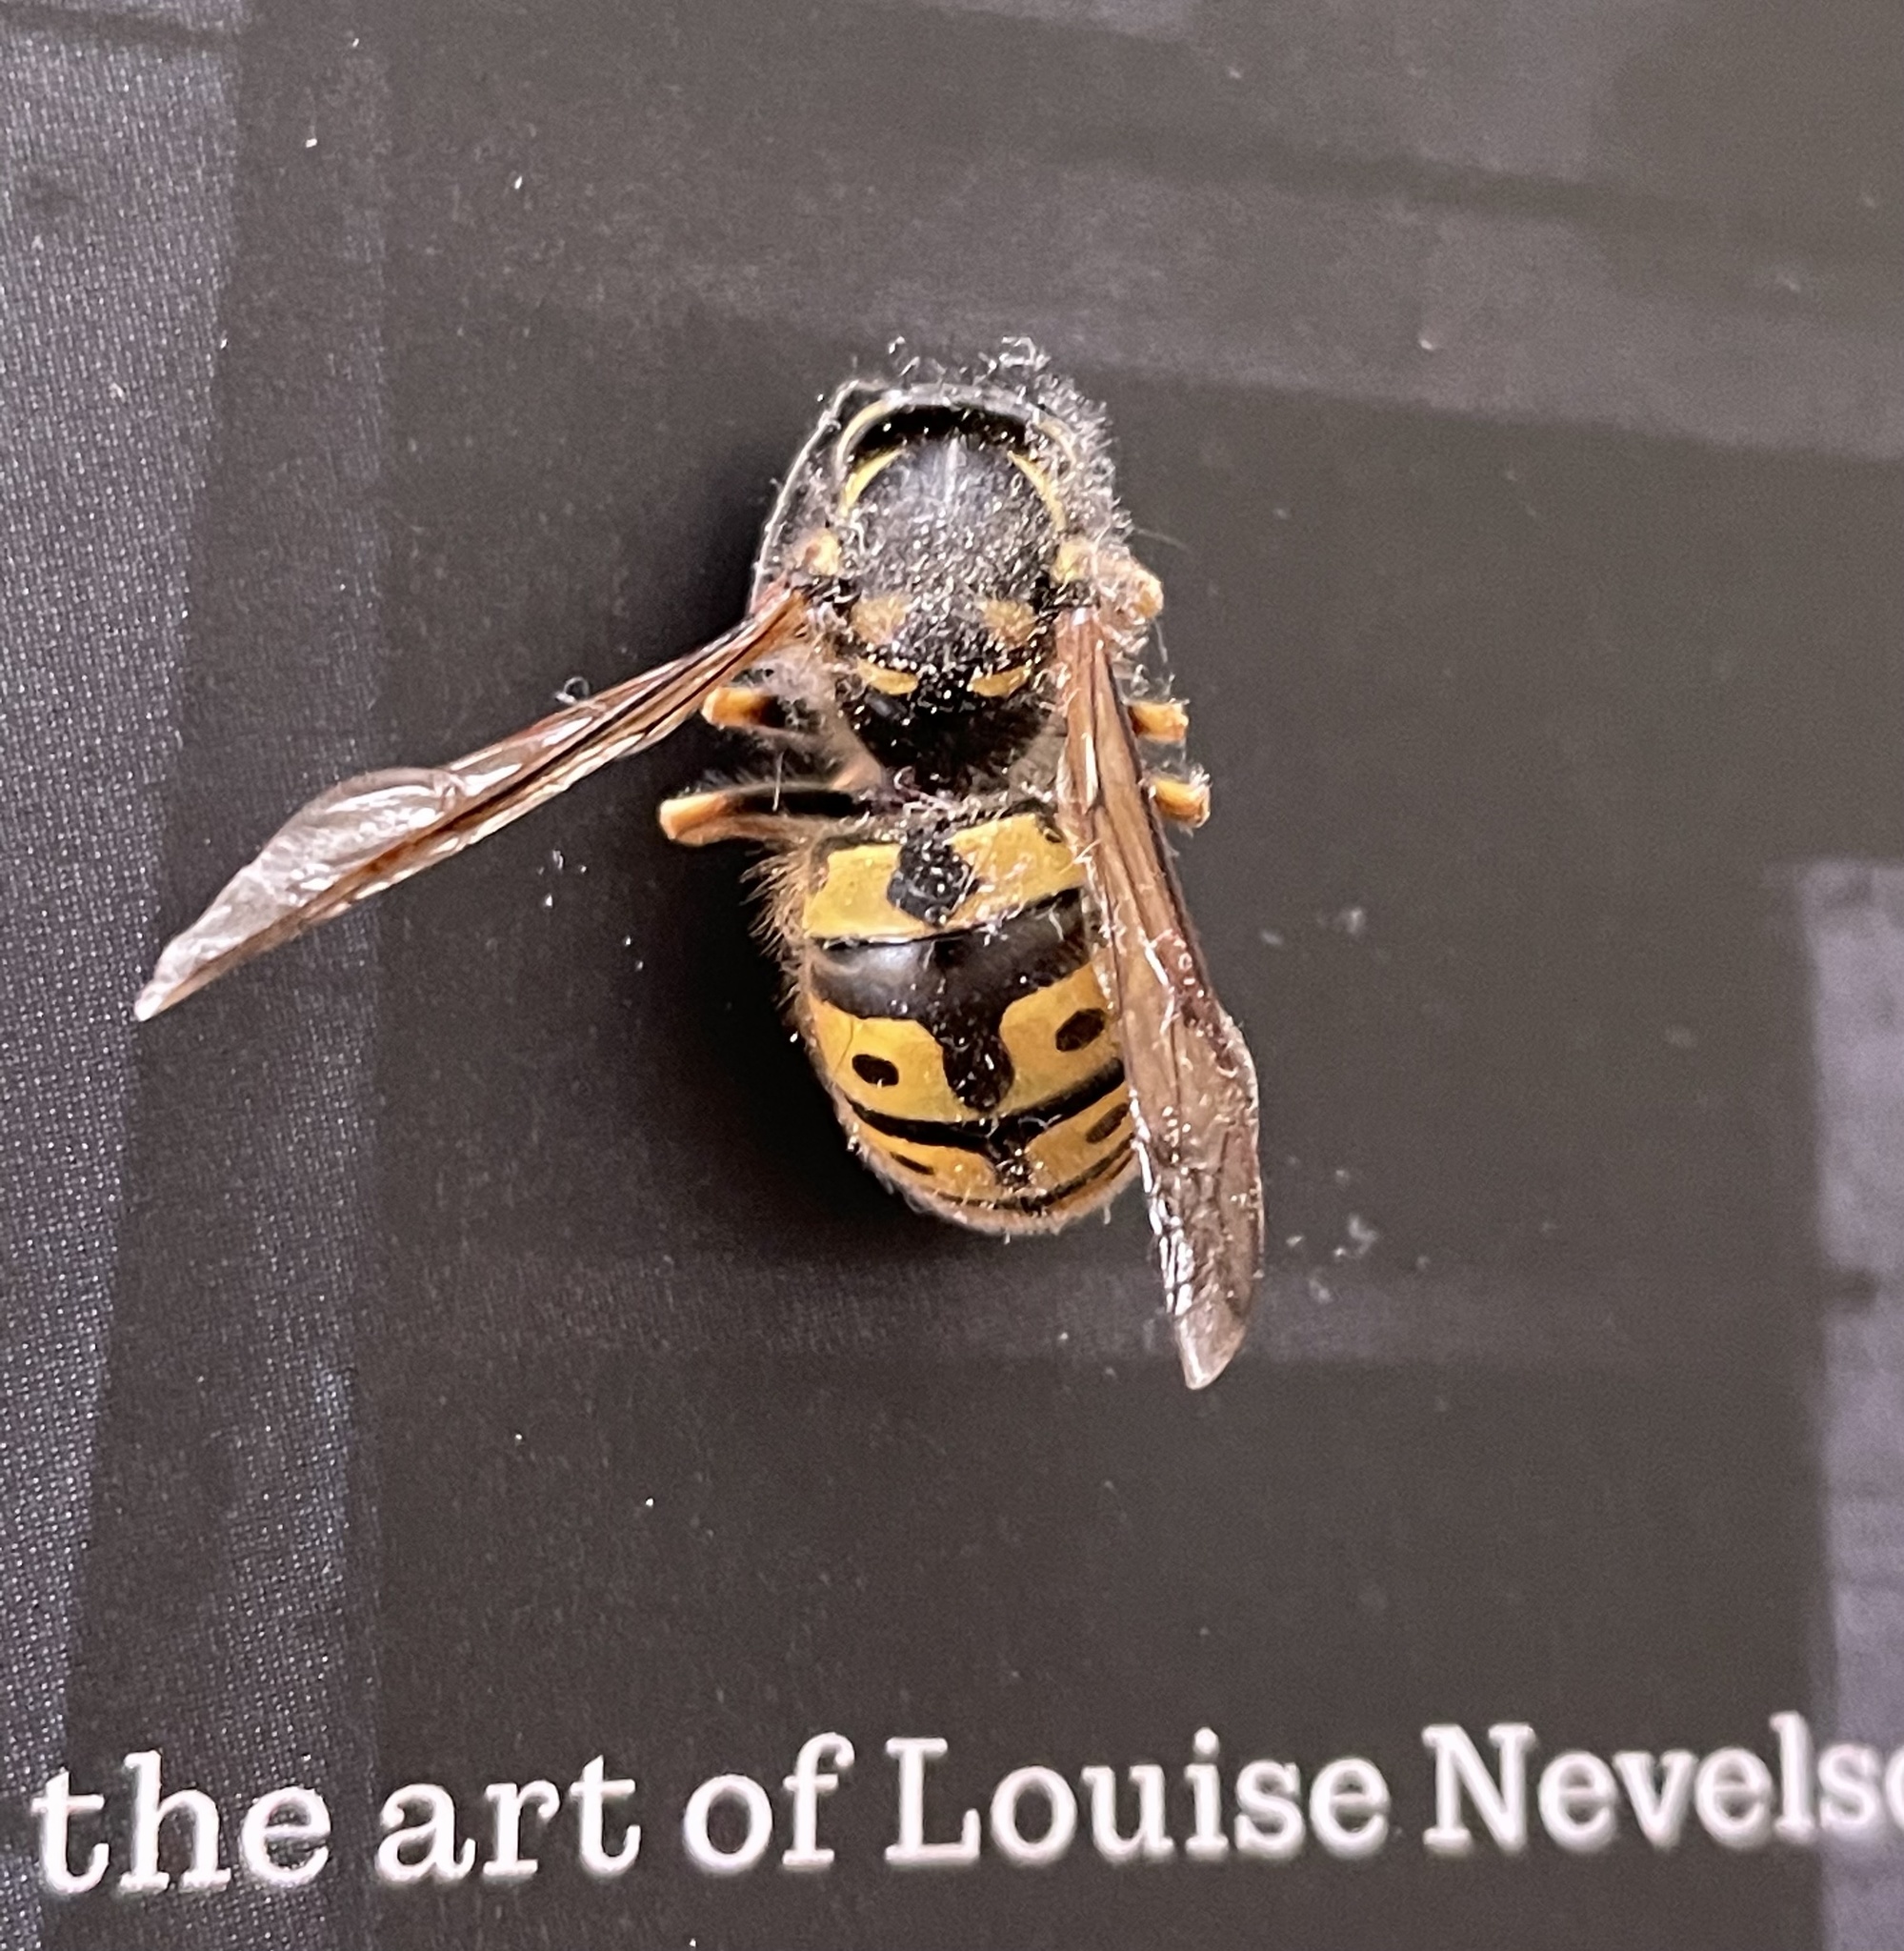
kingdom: Animalia
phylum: Arthropoda
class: Insecta
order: Hymenoptera
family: Vespidae
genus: Vespula
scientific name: Vespula germanica
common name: German wasp
